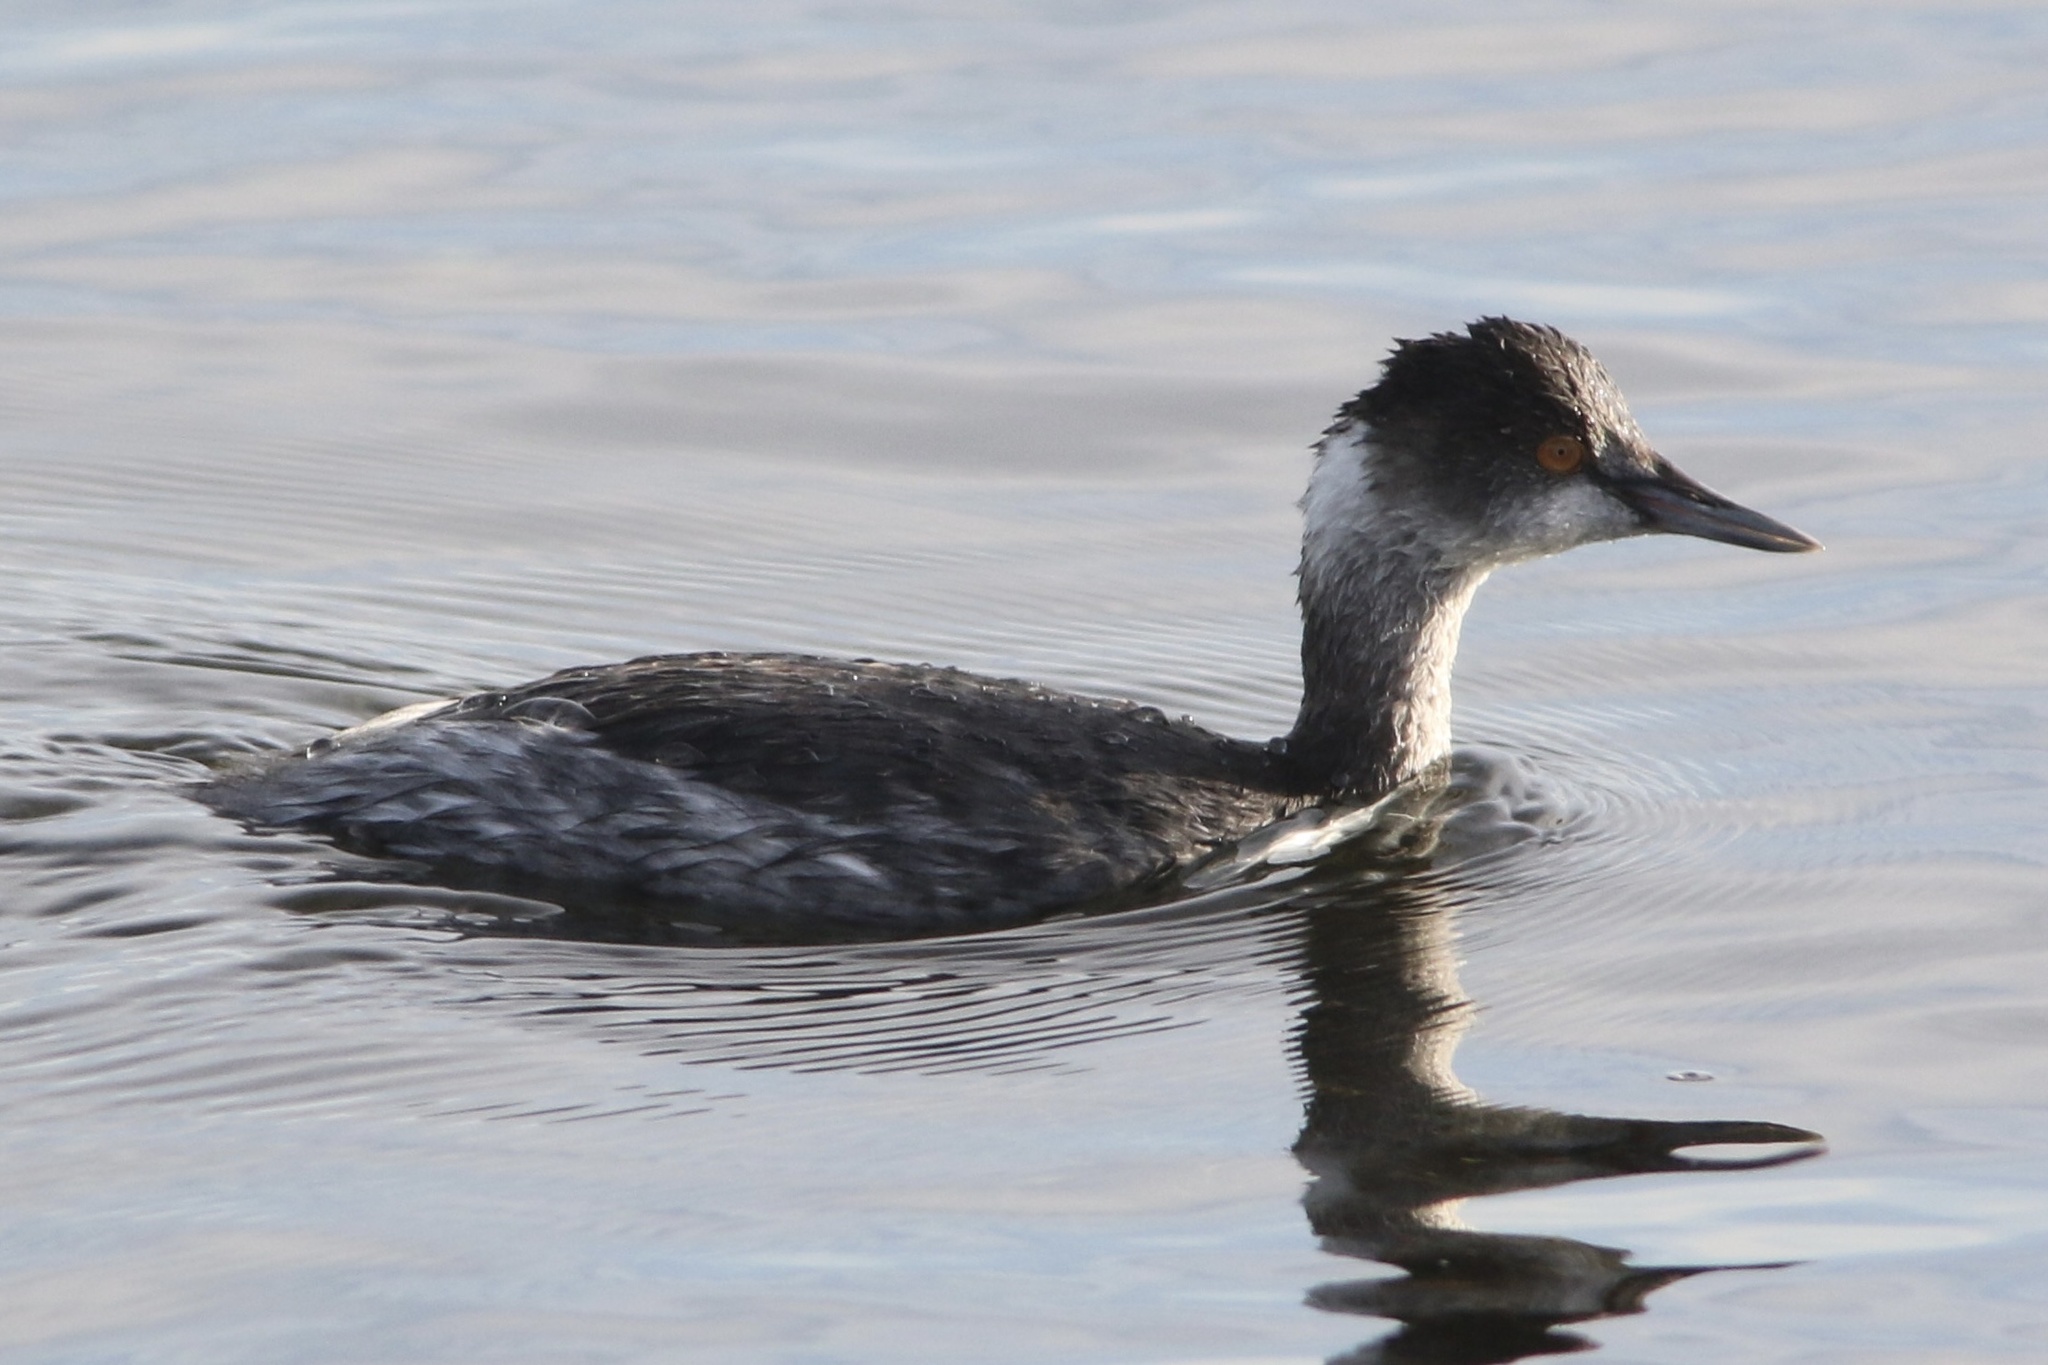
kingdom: Animalia
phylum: Chordata
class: Aves
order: Podicipediformes
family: Podicipedidae
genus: Podiceps
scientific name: Podiceps nigricollis
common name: Black-necked grebe
